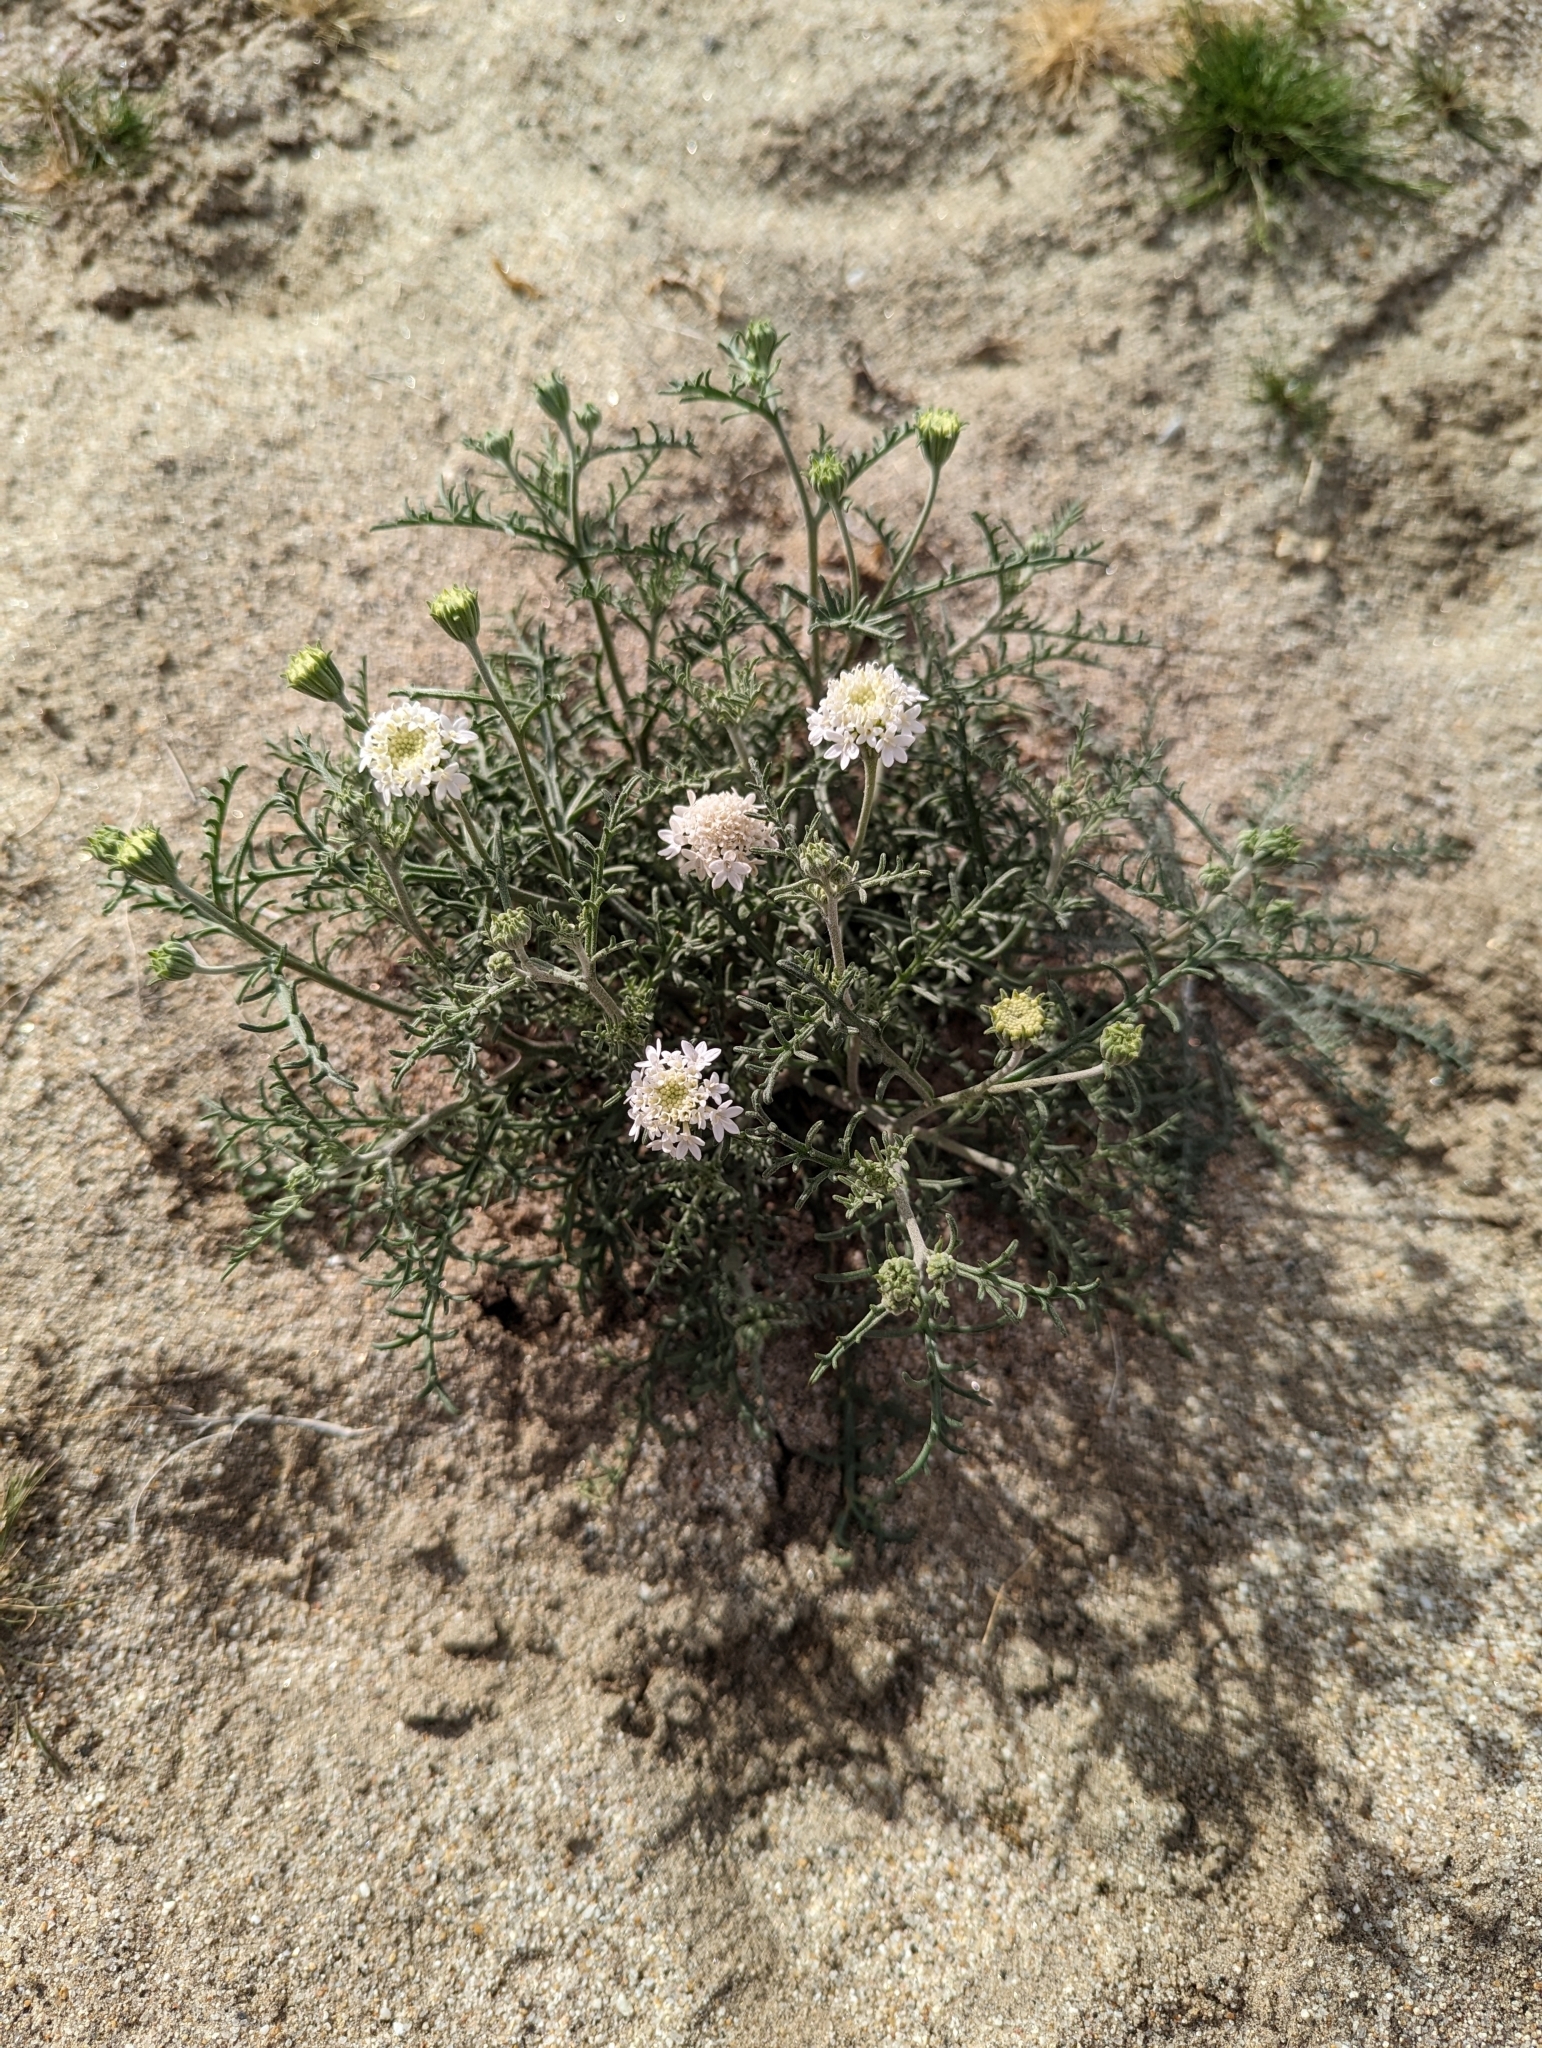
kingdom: Plantae
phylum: Tracheophyta
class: Magnoliopsida
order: Asterales
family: Asteraceae
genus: Chaenactis
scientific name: Chaenactis stevioides
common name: Desert pincushion
